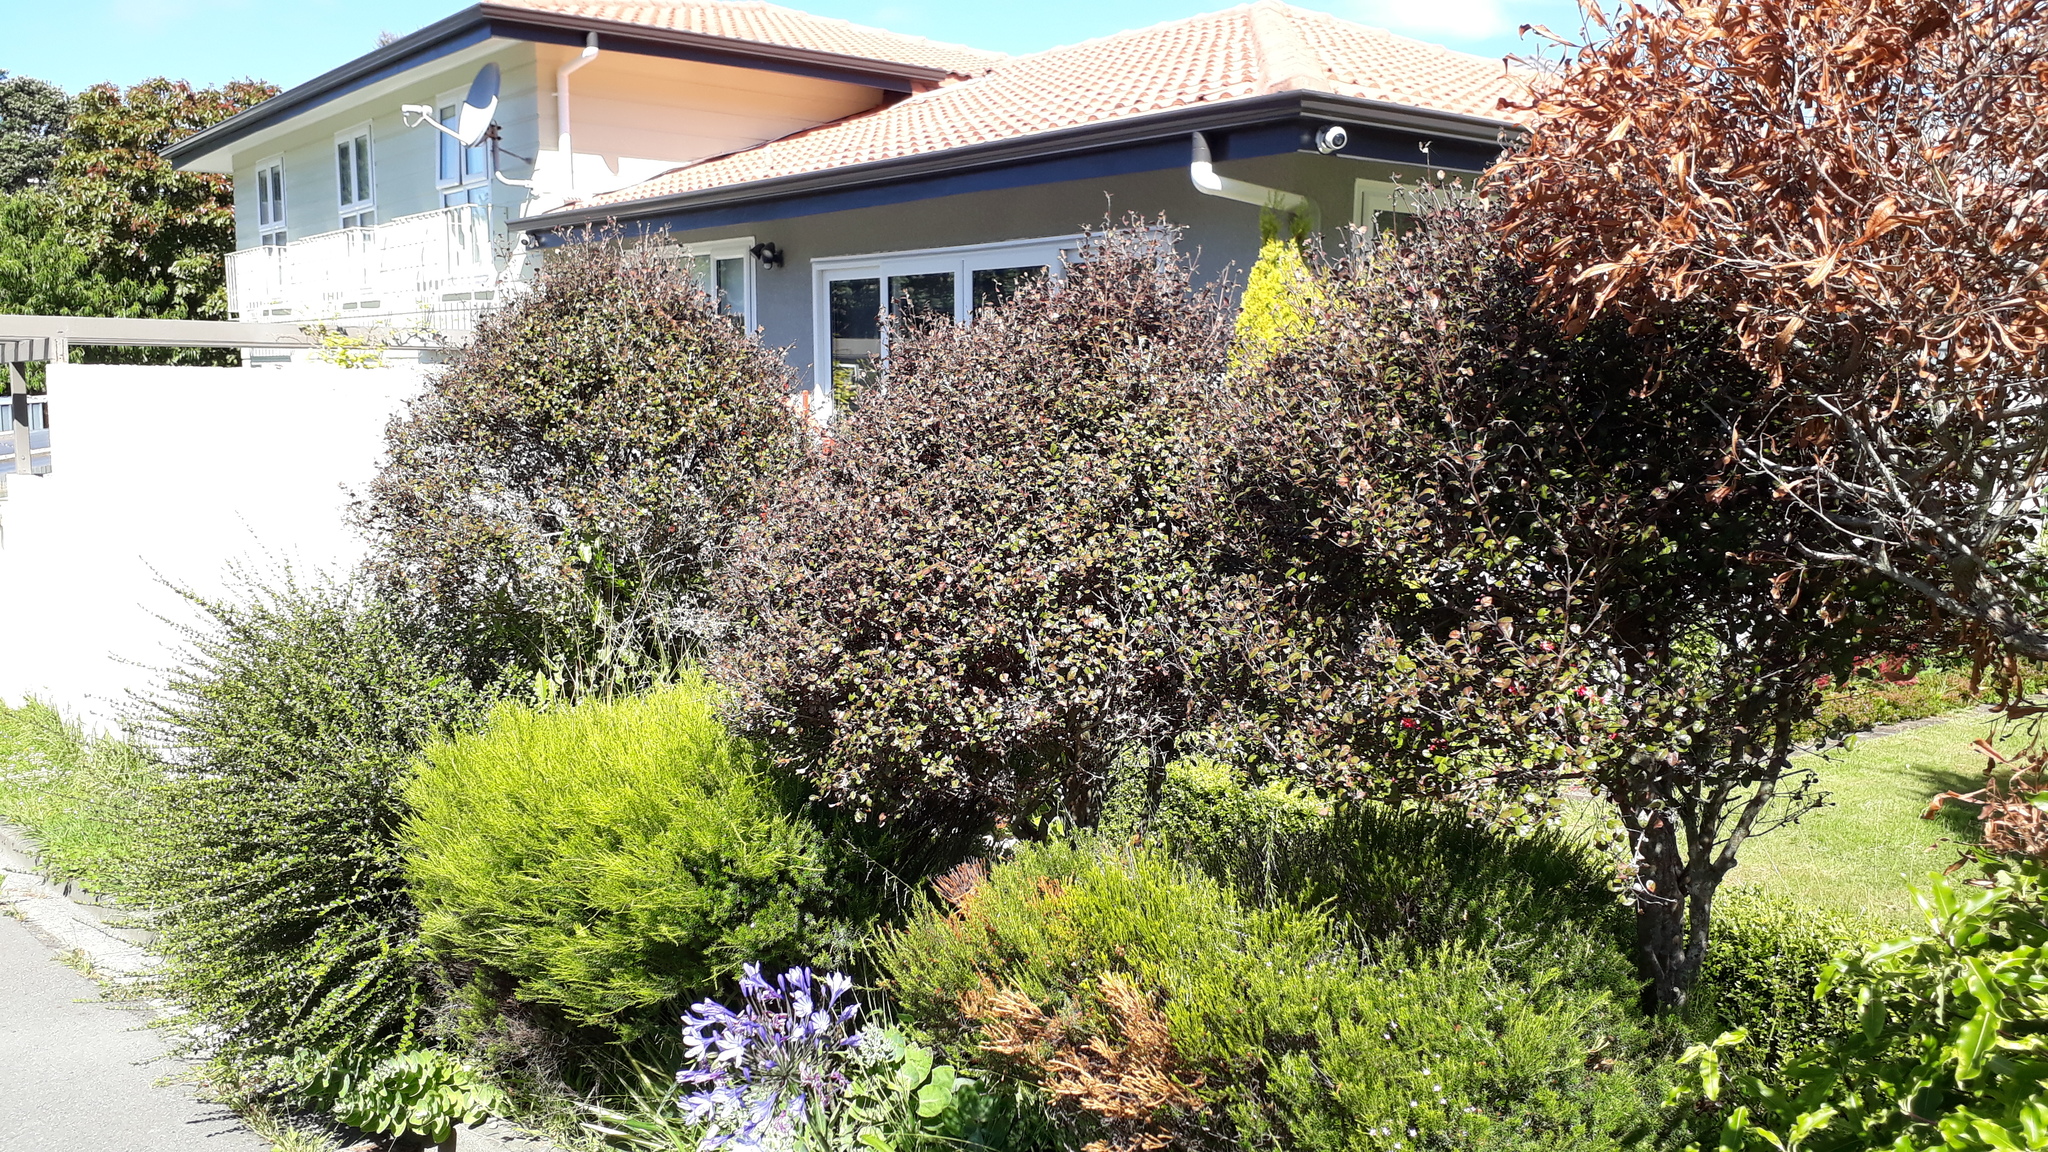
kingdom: Fungi
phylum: Basidiomycota
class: Pucciniomycetes
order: Pucciniales
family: Sphaerophragmiaceae
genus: Austropuccinia
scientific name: Austropuccinia psidii
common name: Myrtle rust
